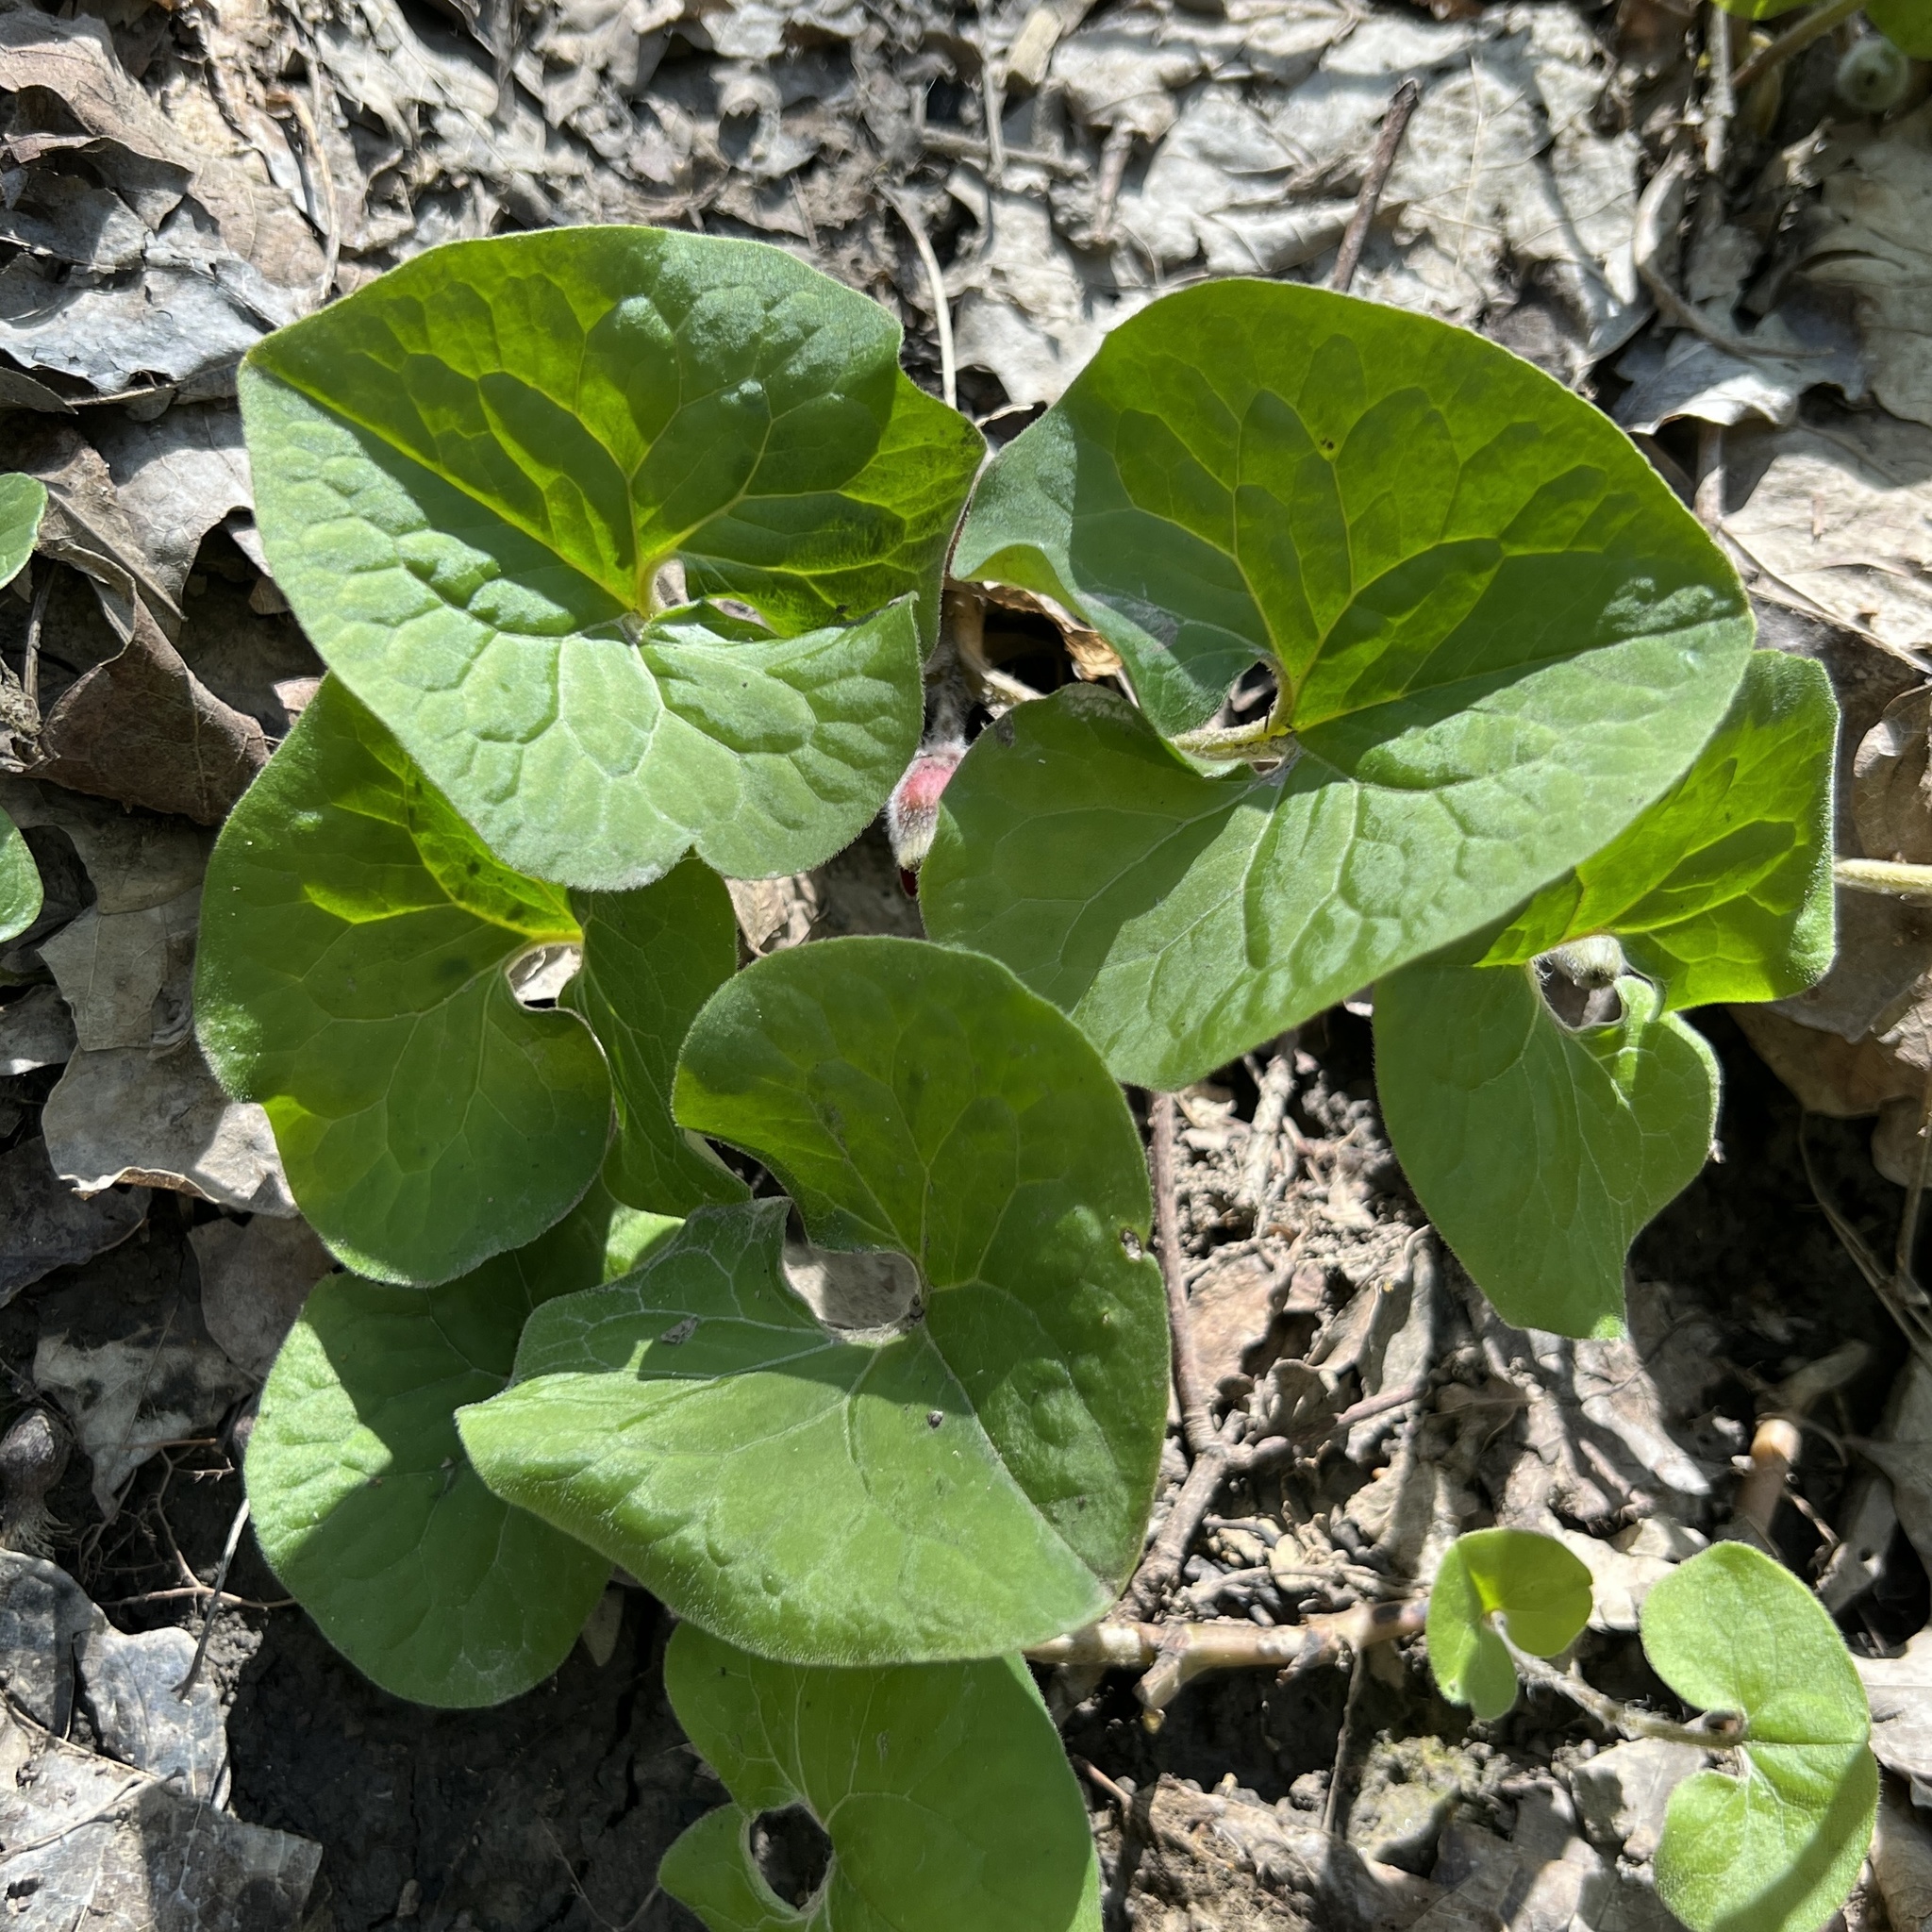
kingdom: Plantae
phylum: Tracheophyta
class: Magnoliopsida
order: Piperales
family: Aristolochiaceae
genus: Asarum
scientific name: Asarum canadense
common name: Wild ginger
